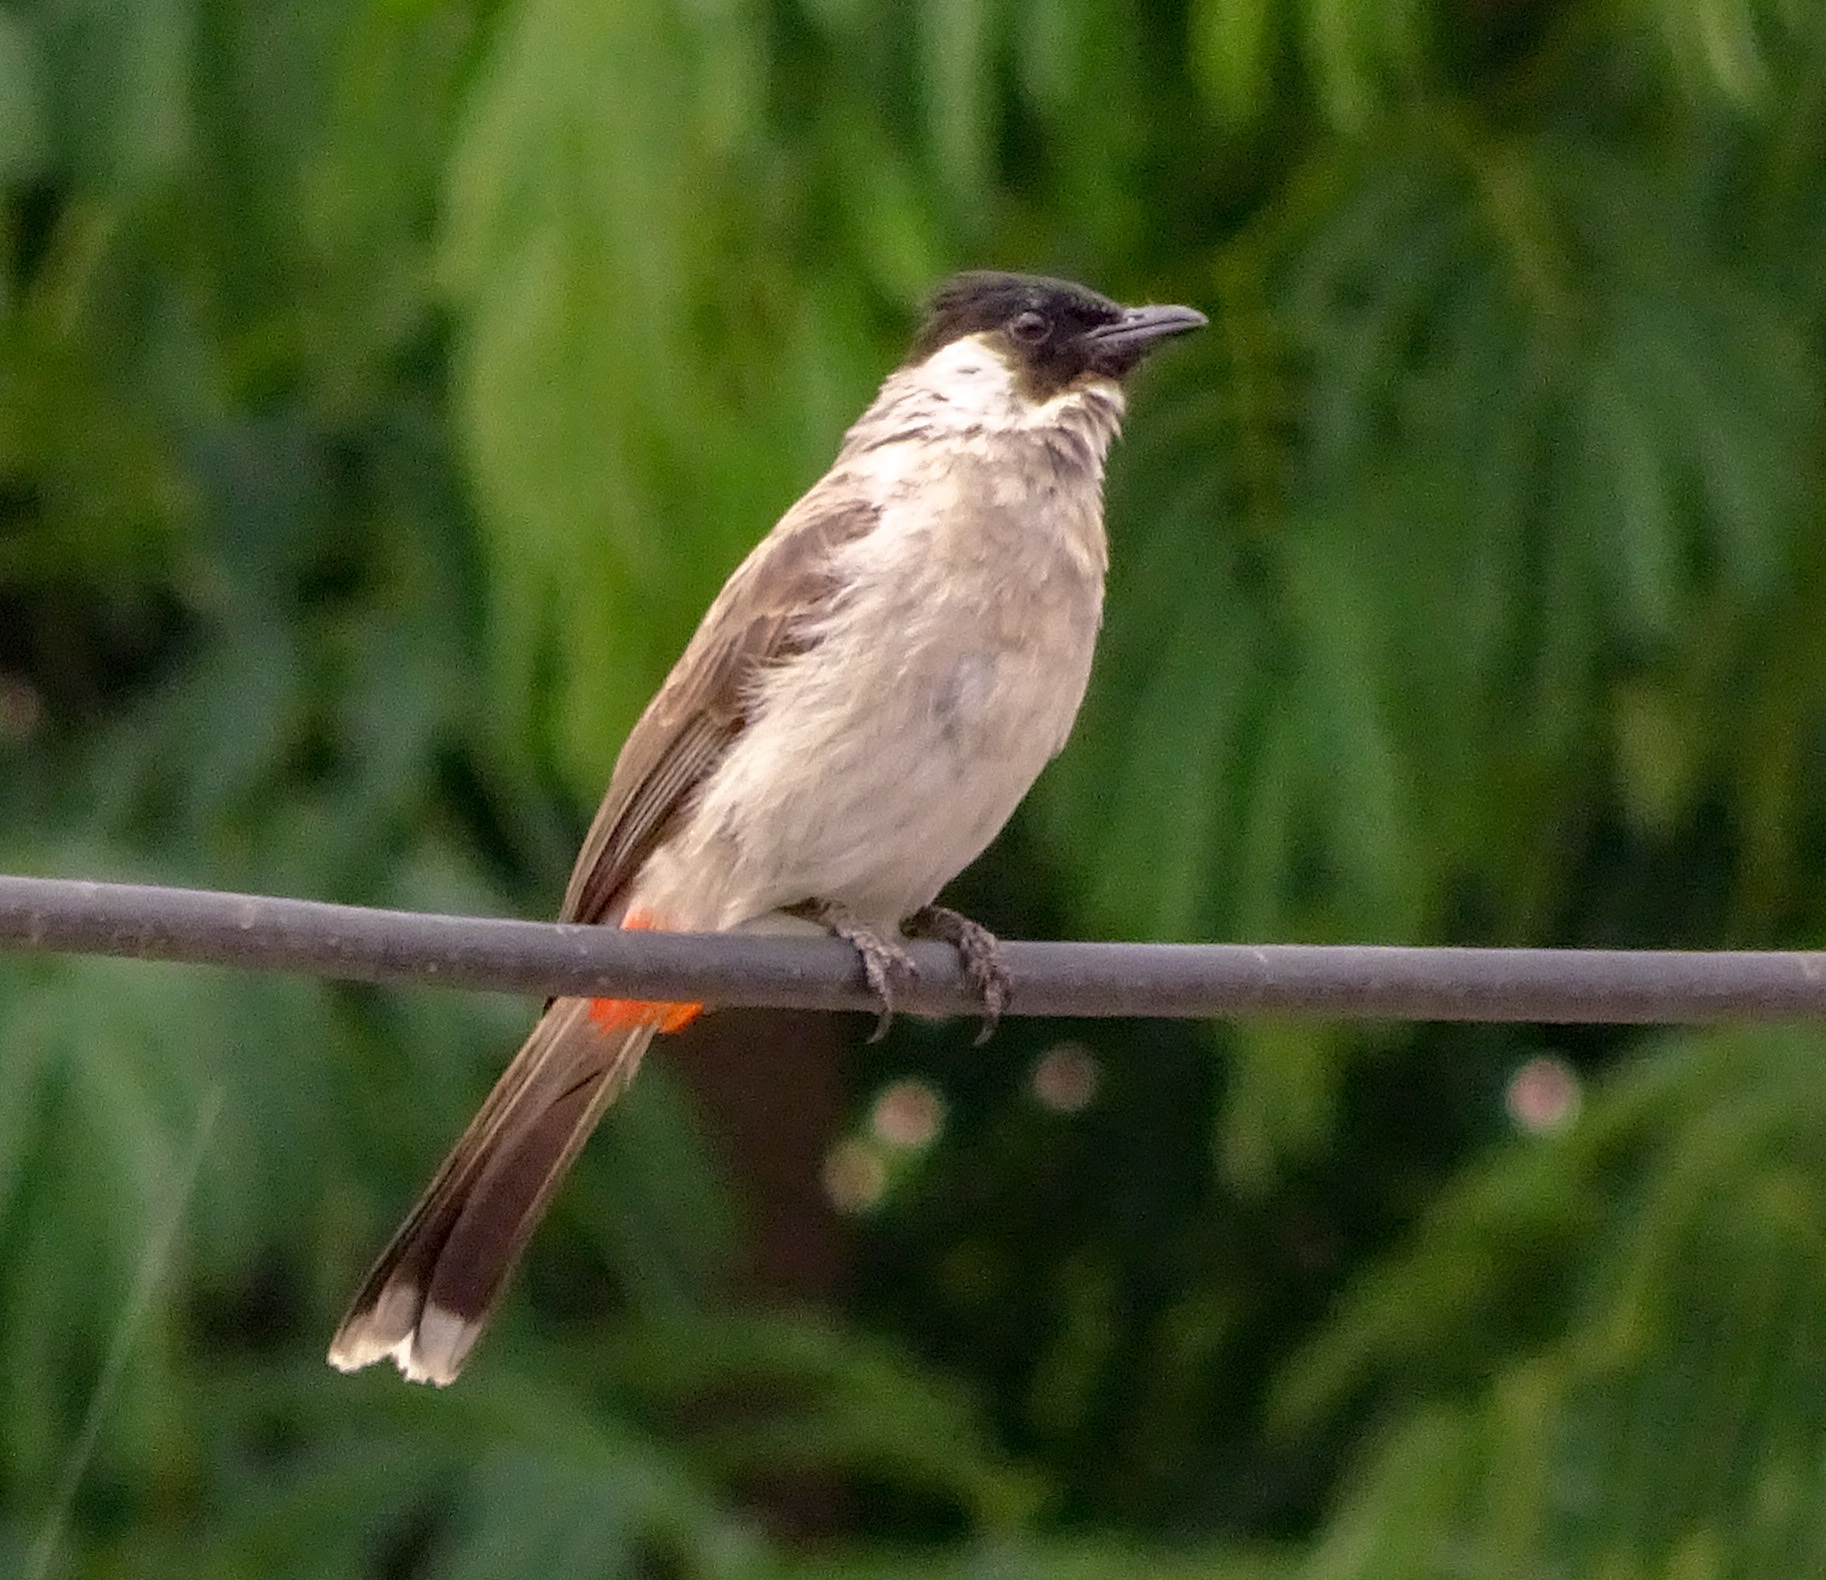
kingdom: Animalia
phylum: Chordata
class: Aves
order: Passeriformes
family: Pycnonotidae
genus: Pycnonotus
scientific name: Pycnonotus aurigaster
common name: Sooty-headed bulbul
